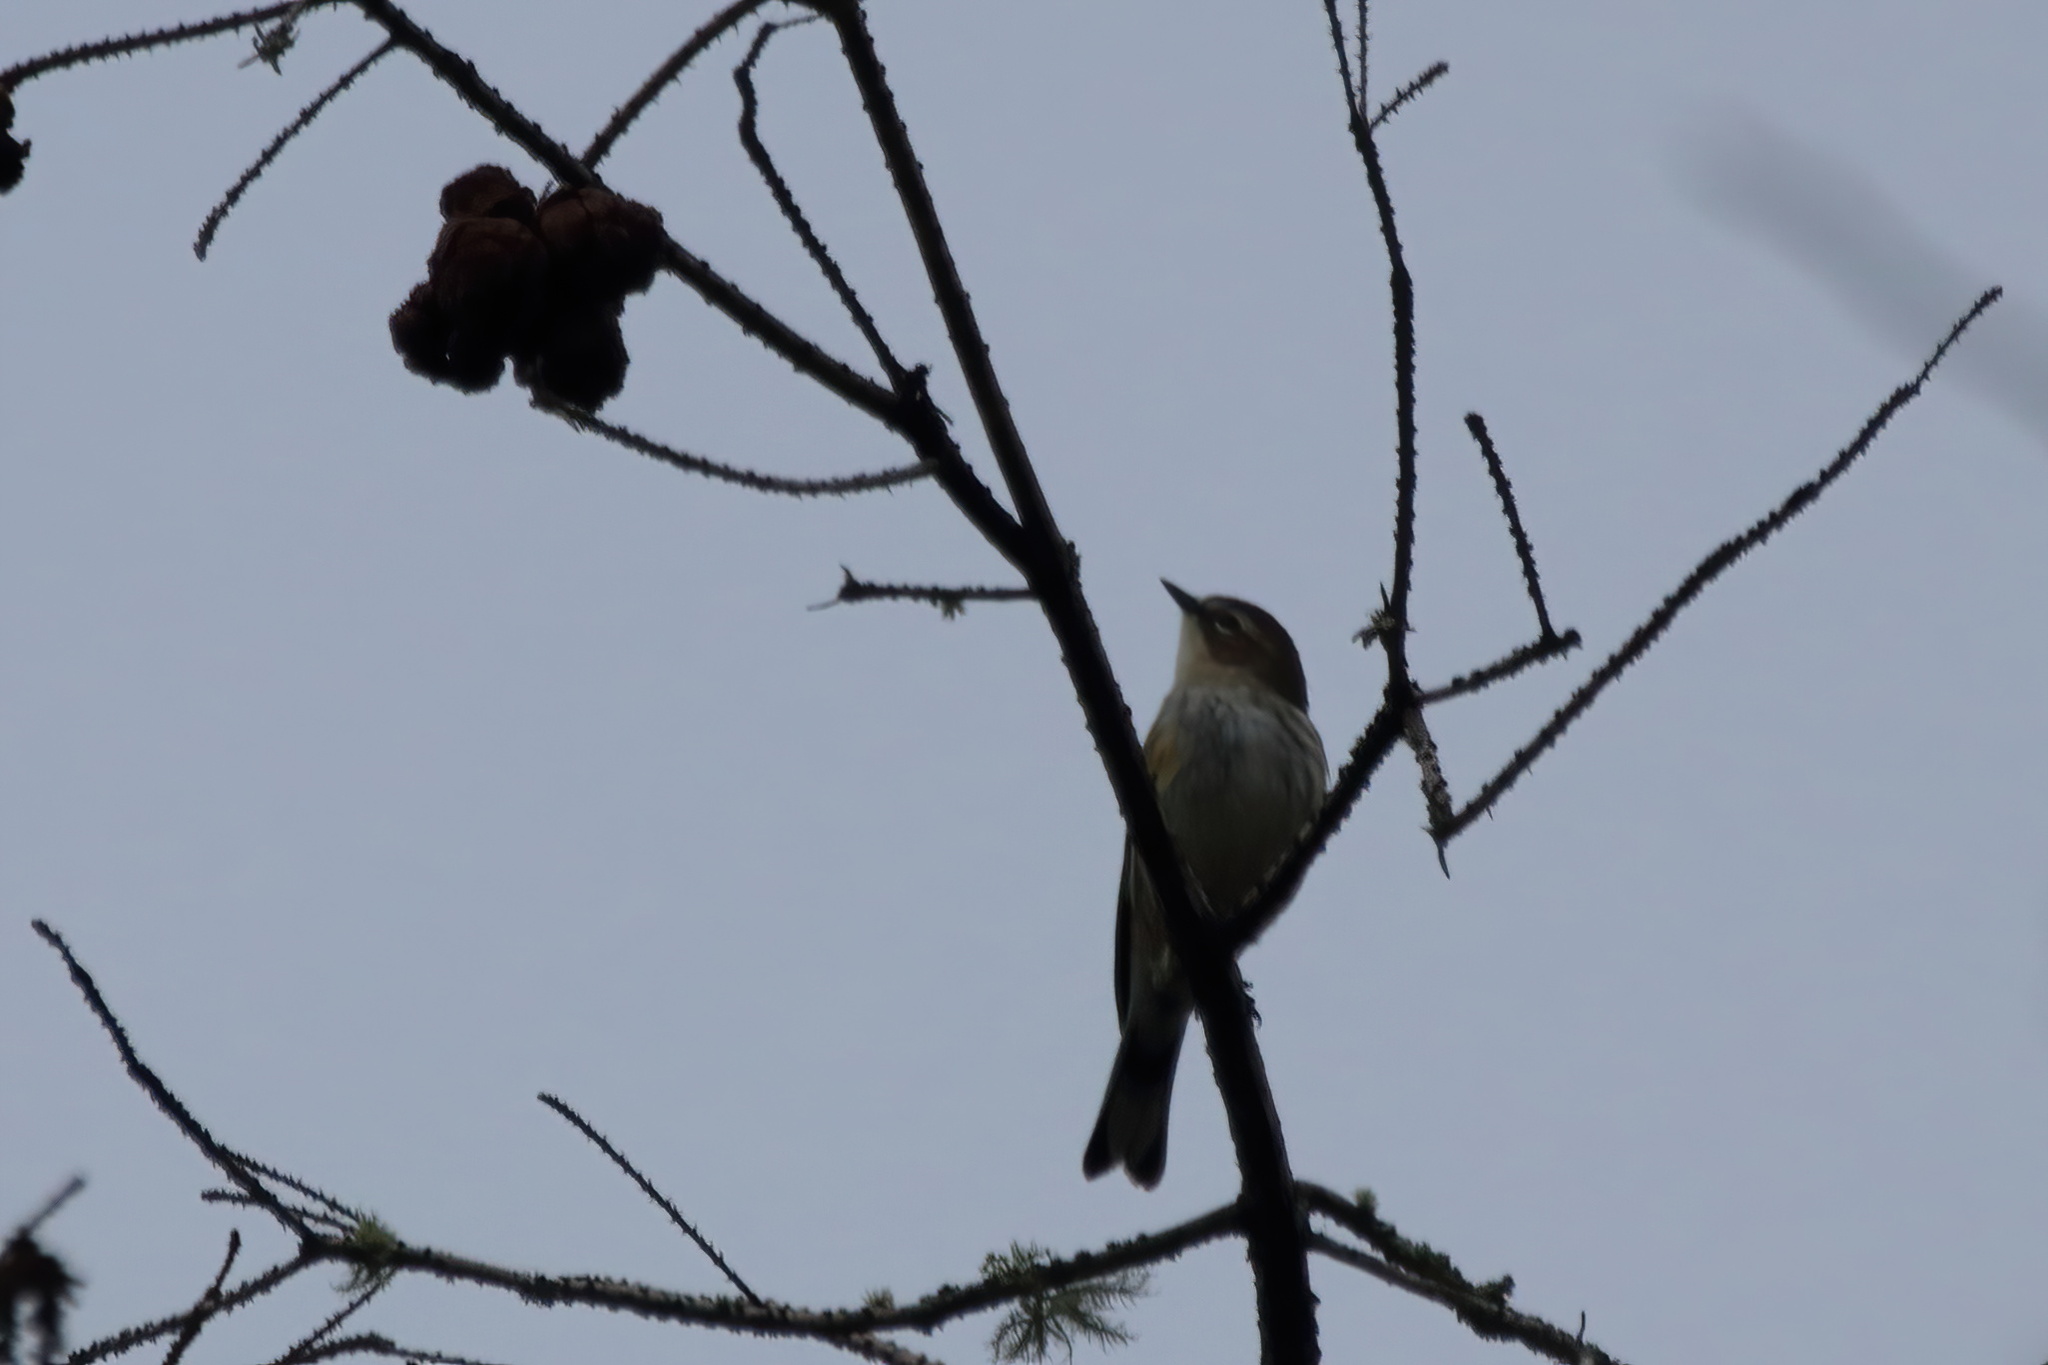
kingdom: Animalia
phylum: Chordata
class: Aves
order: Passeriformes
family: Parulidae
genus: Setophaga
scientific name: Setophaga coronata
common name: Myrtle warbler
